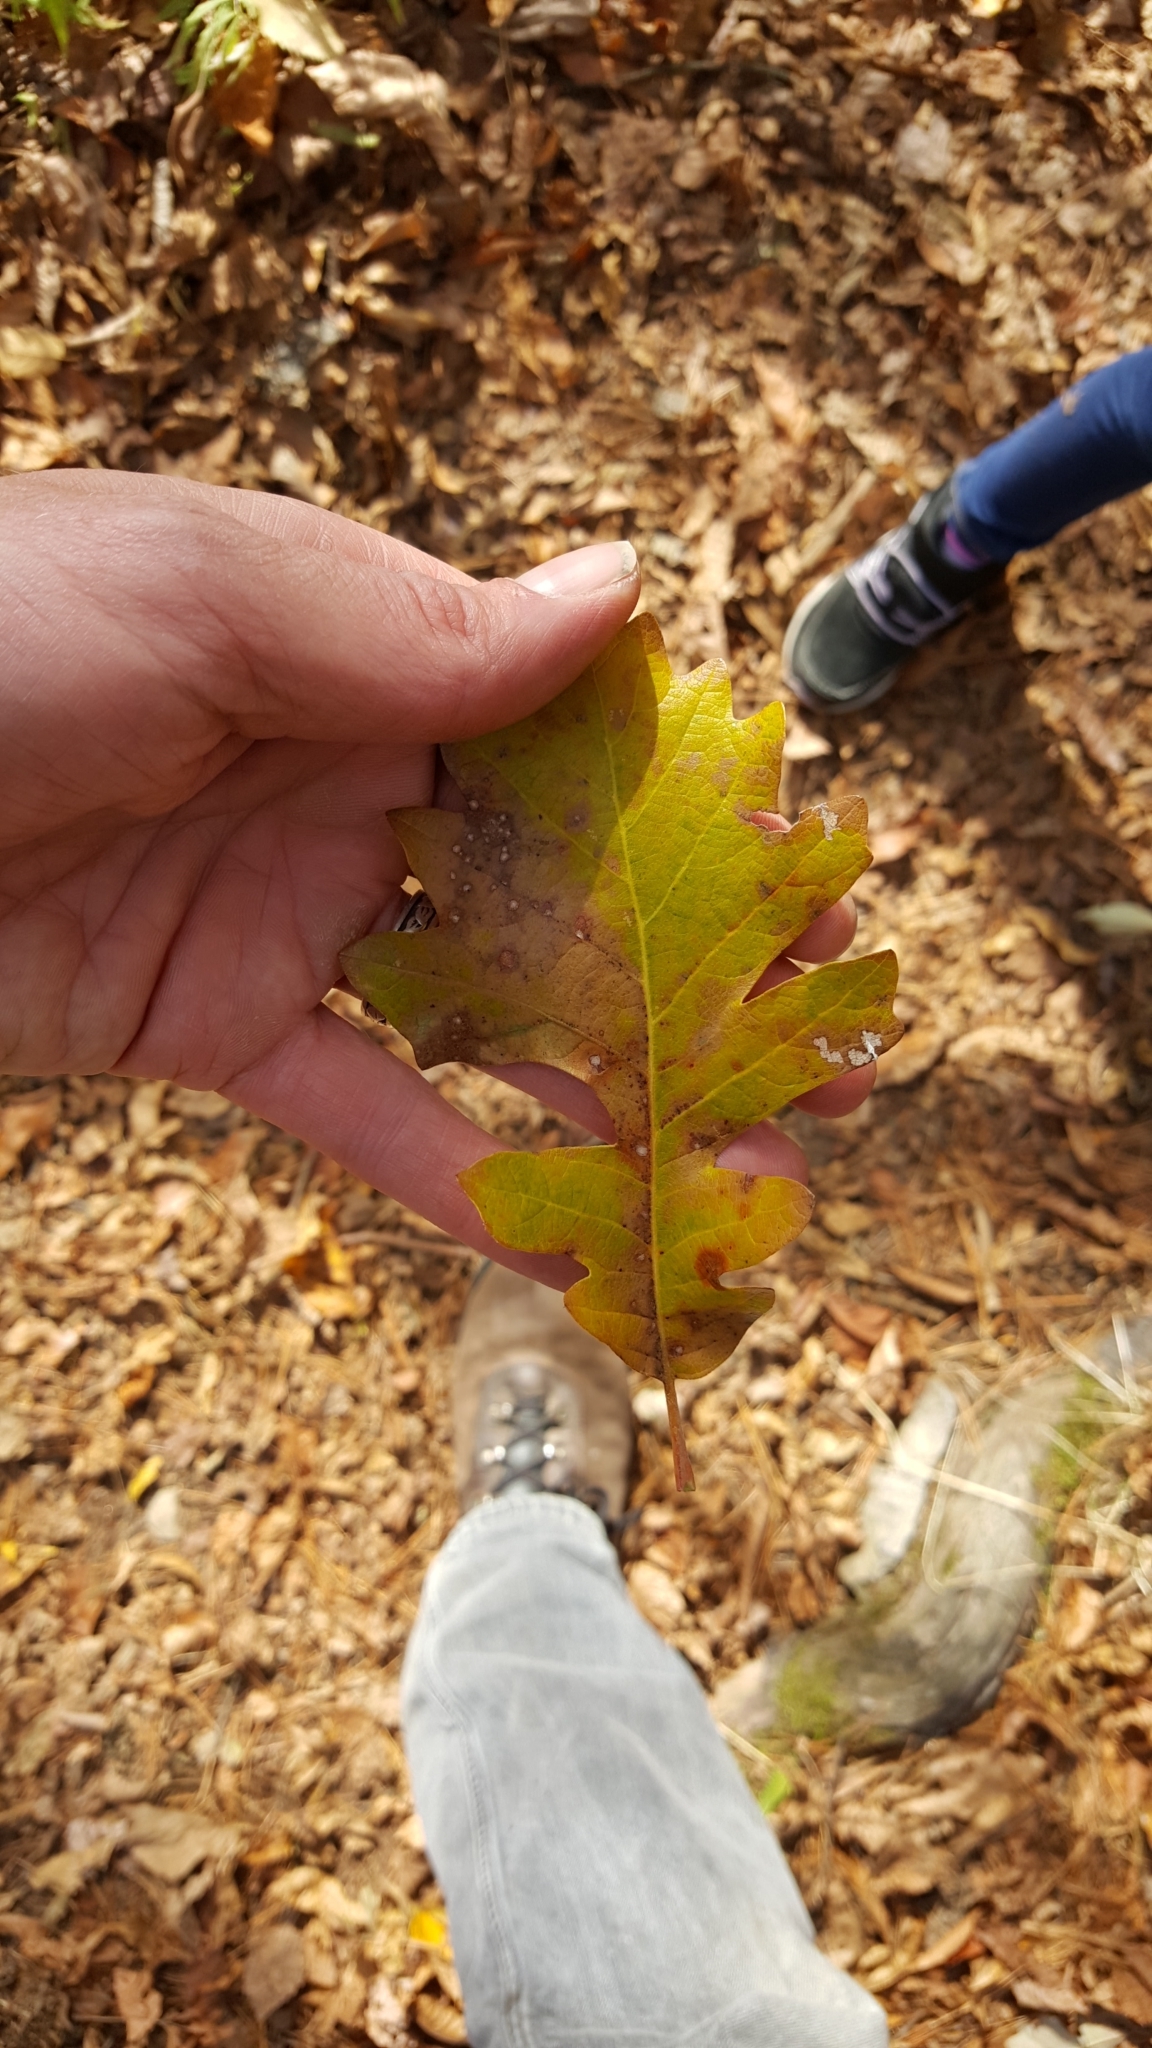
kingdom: Plantae
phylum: Tracheophyta
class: Magnoliopsida
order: Fagales
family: Fagaceae
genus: Quercus
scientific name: Quercus macrocarpa
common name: Bur oak
